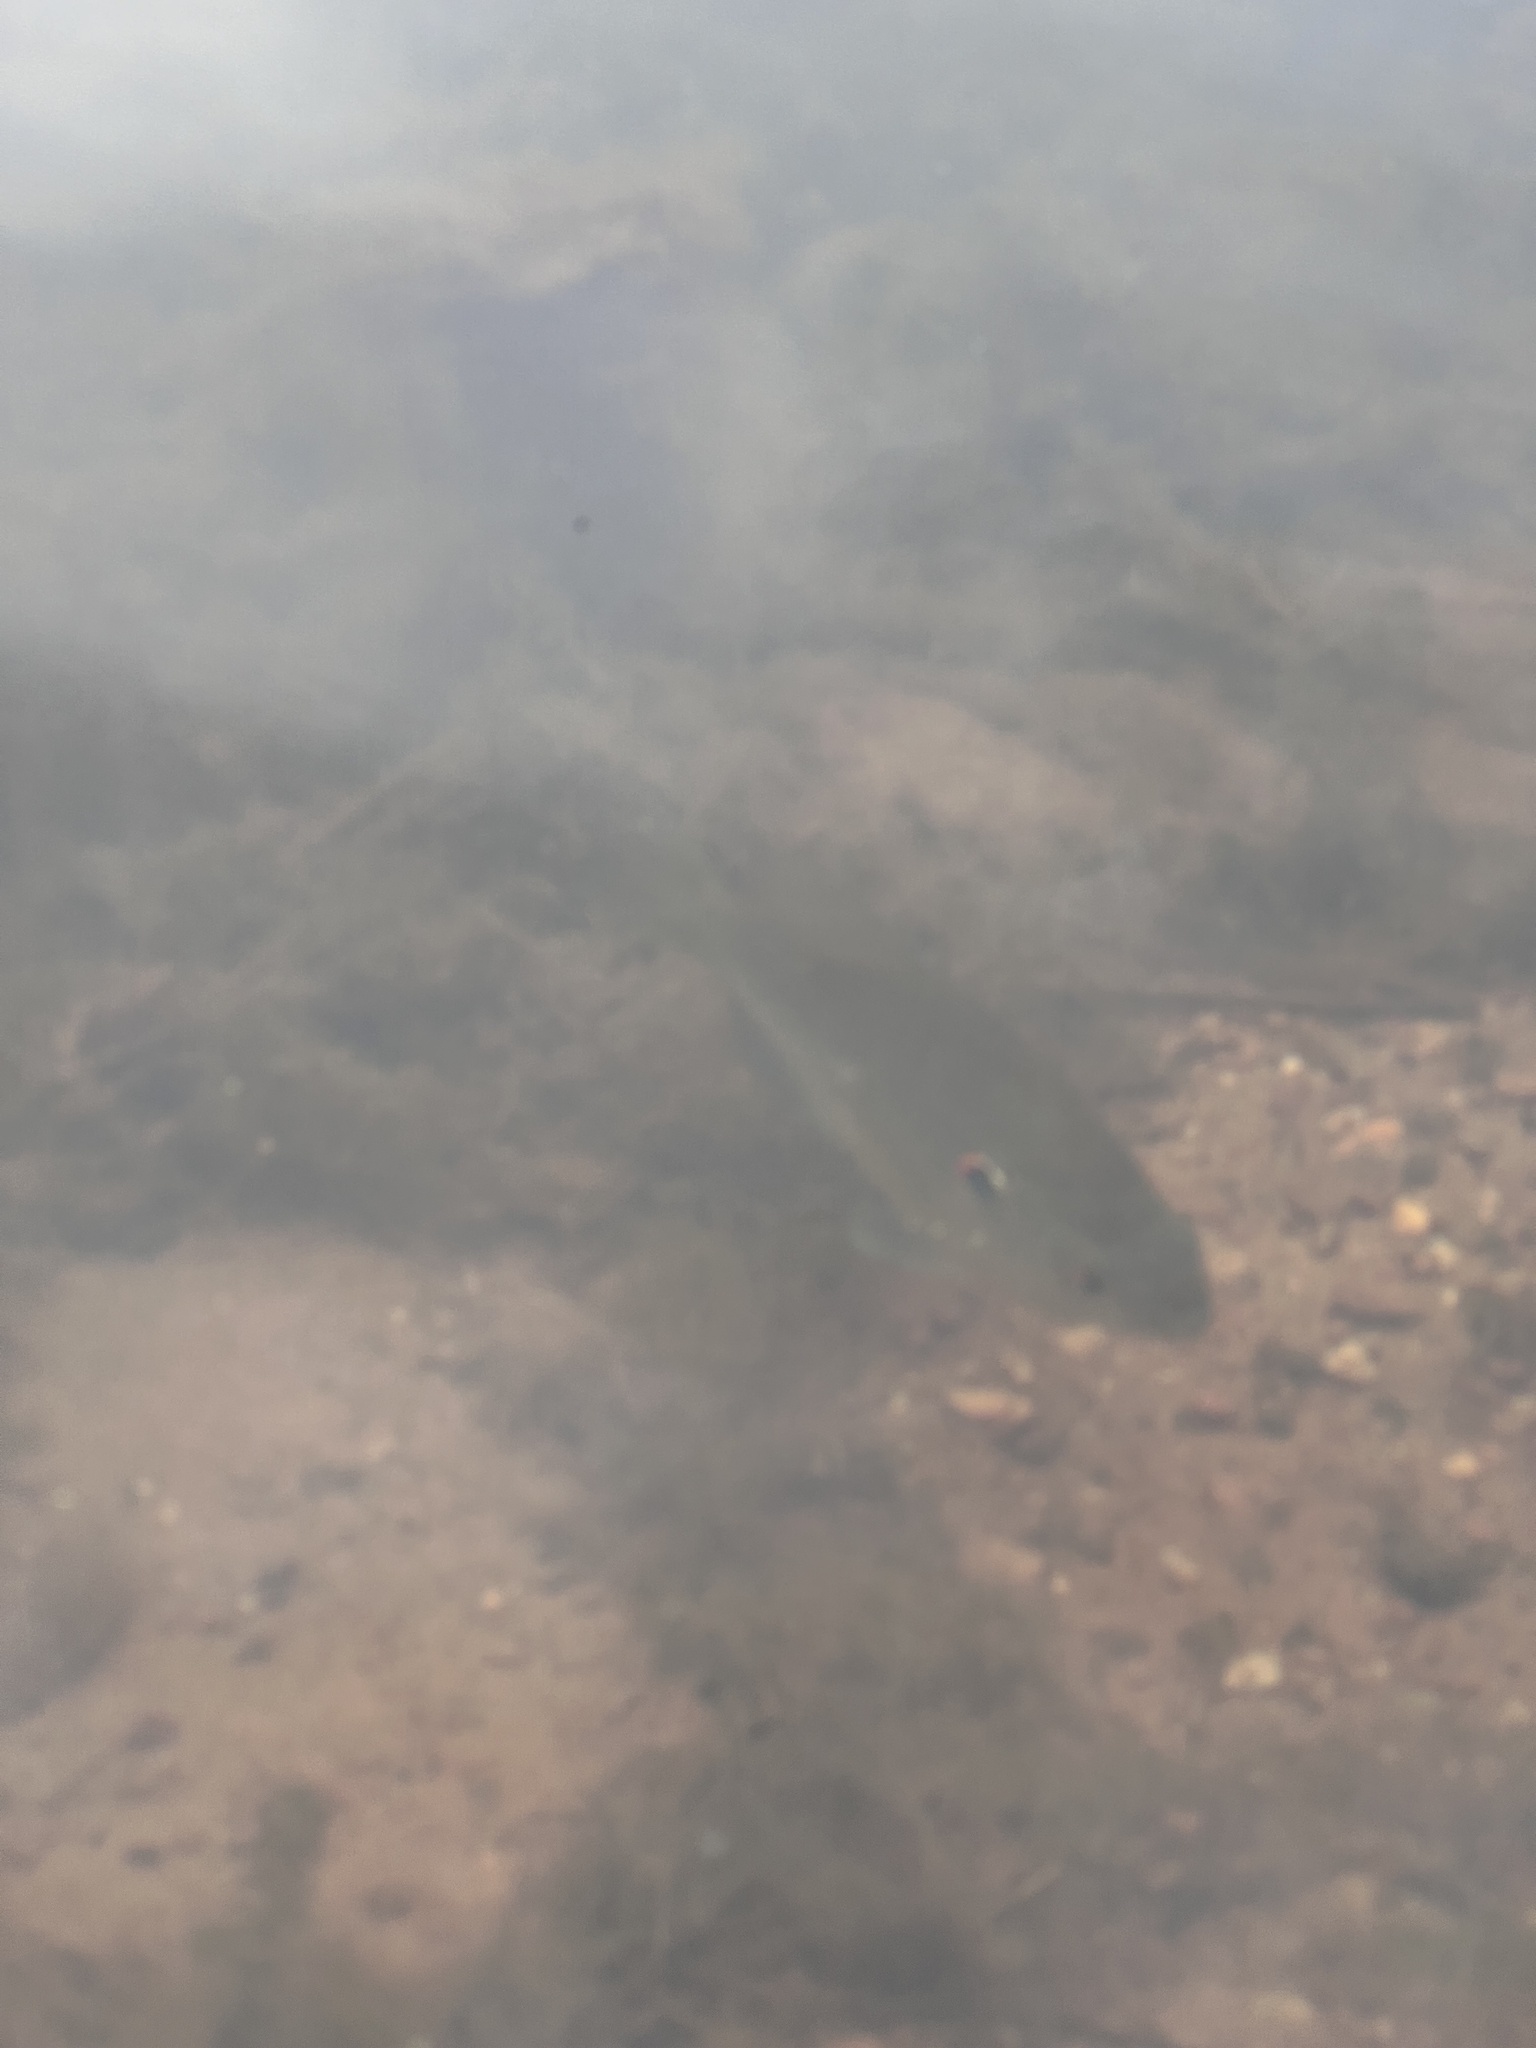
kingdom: Animalia
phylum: Chordata
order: Perciformes
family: Centrarchidae
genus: Lepomis
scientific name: Lepomis gibbosus
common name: Pumpkinseed
